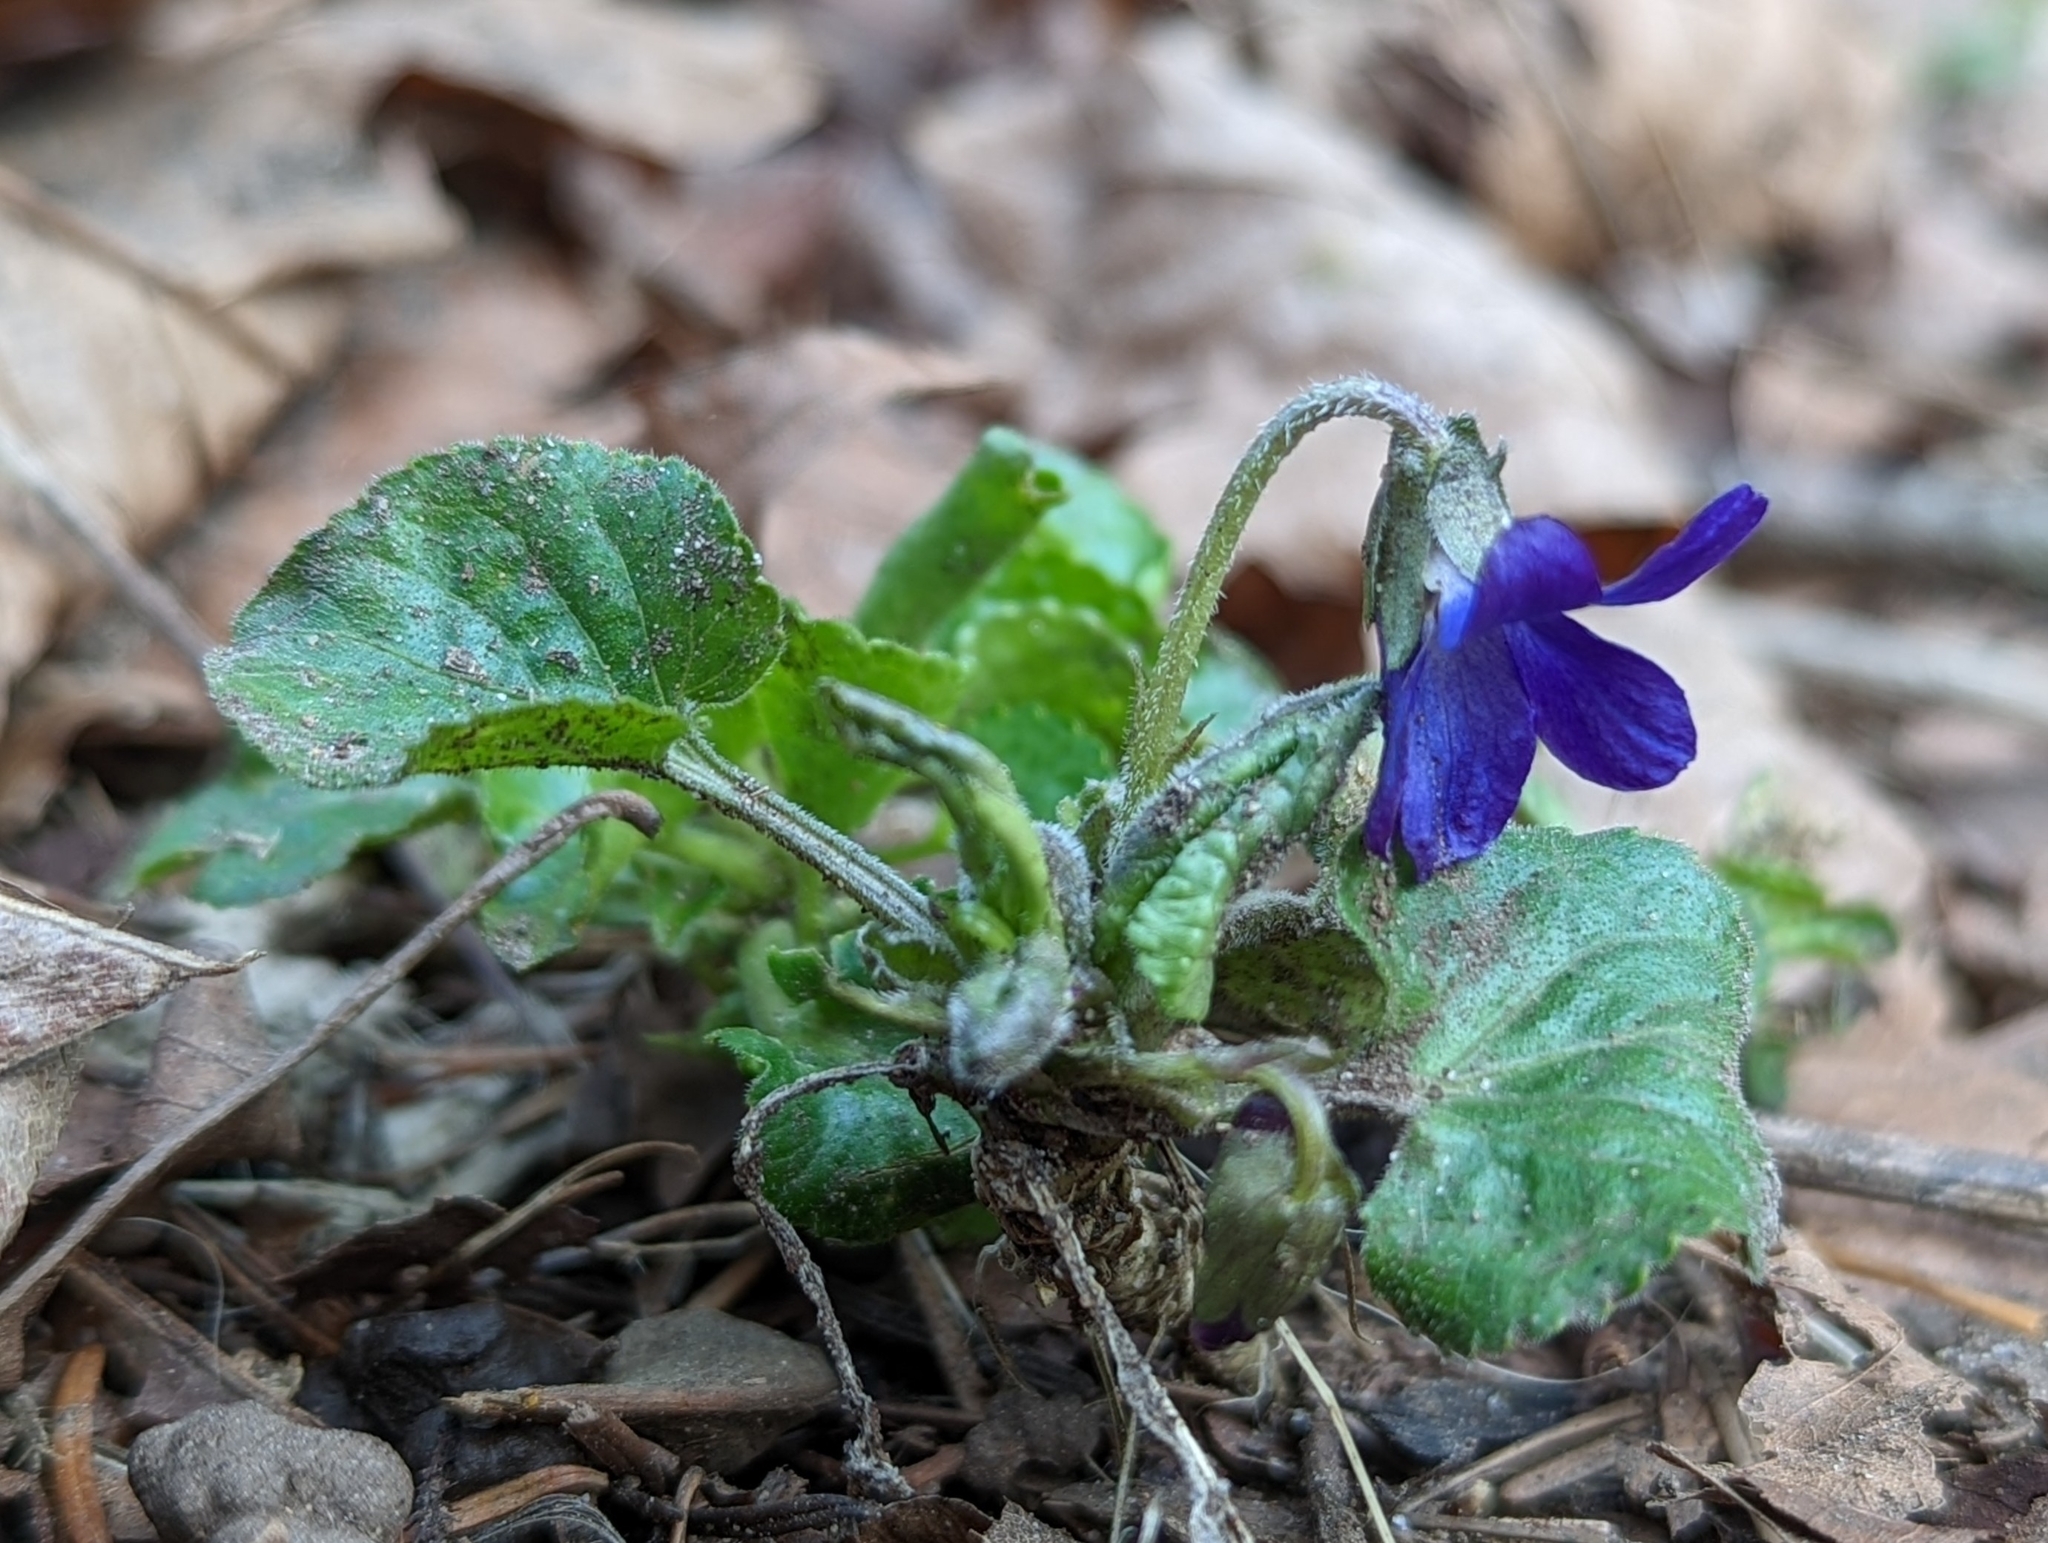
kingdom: Plantae
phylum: Tracheophyta
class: Magnoliopsida
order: Malpighiales
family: Violaceae
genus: Viola
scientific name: Viola odorata
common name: Sweet violet
